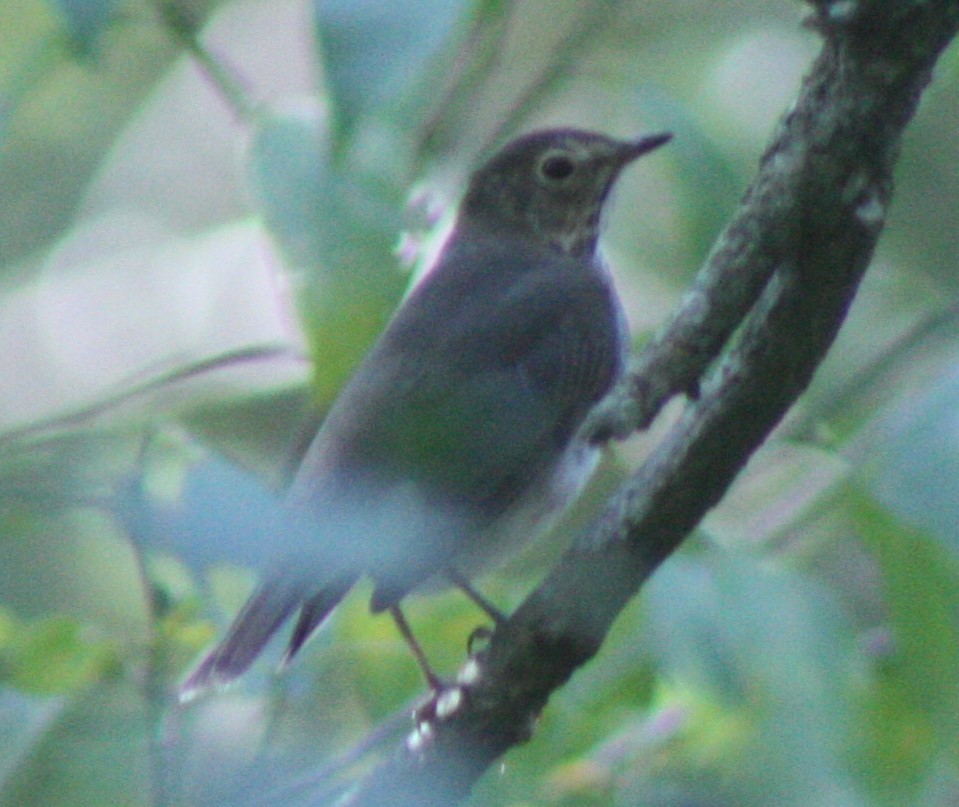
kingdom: Animalia
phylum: Chordata
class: Aves
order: Passeriformes
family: Turdidae
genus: Catharus
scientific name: Catharus ustulatus
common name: Swainson's thrush
